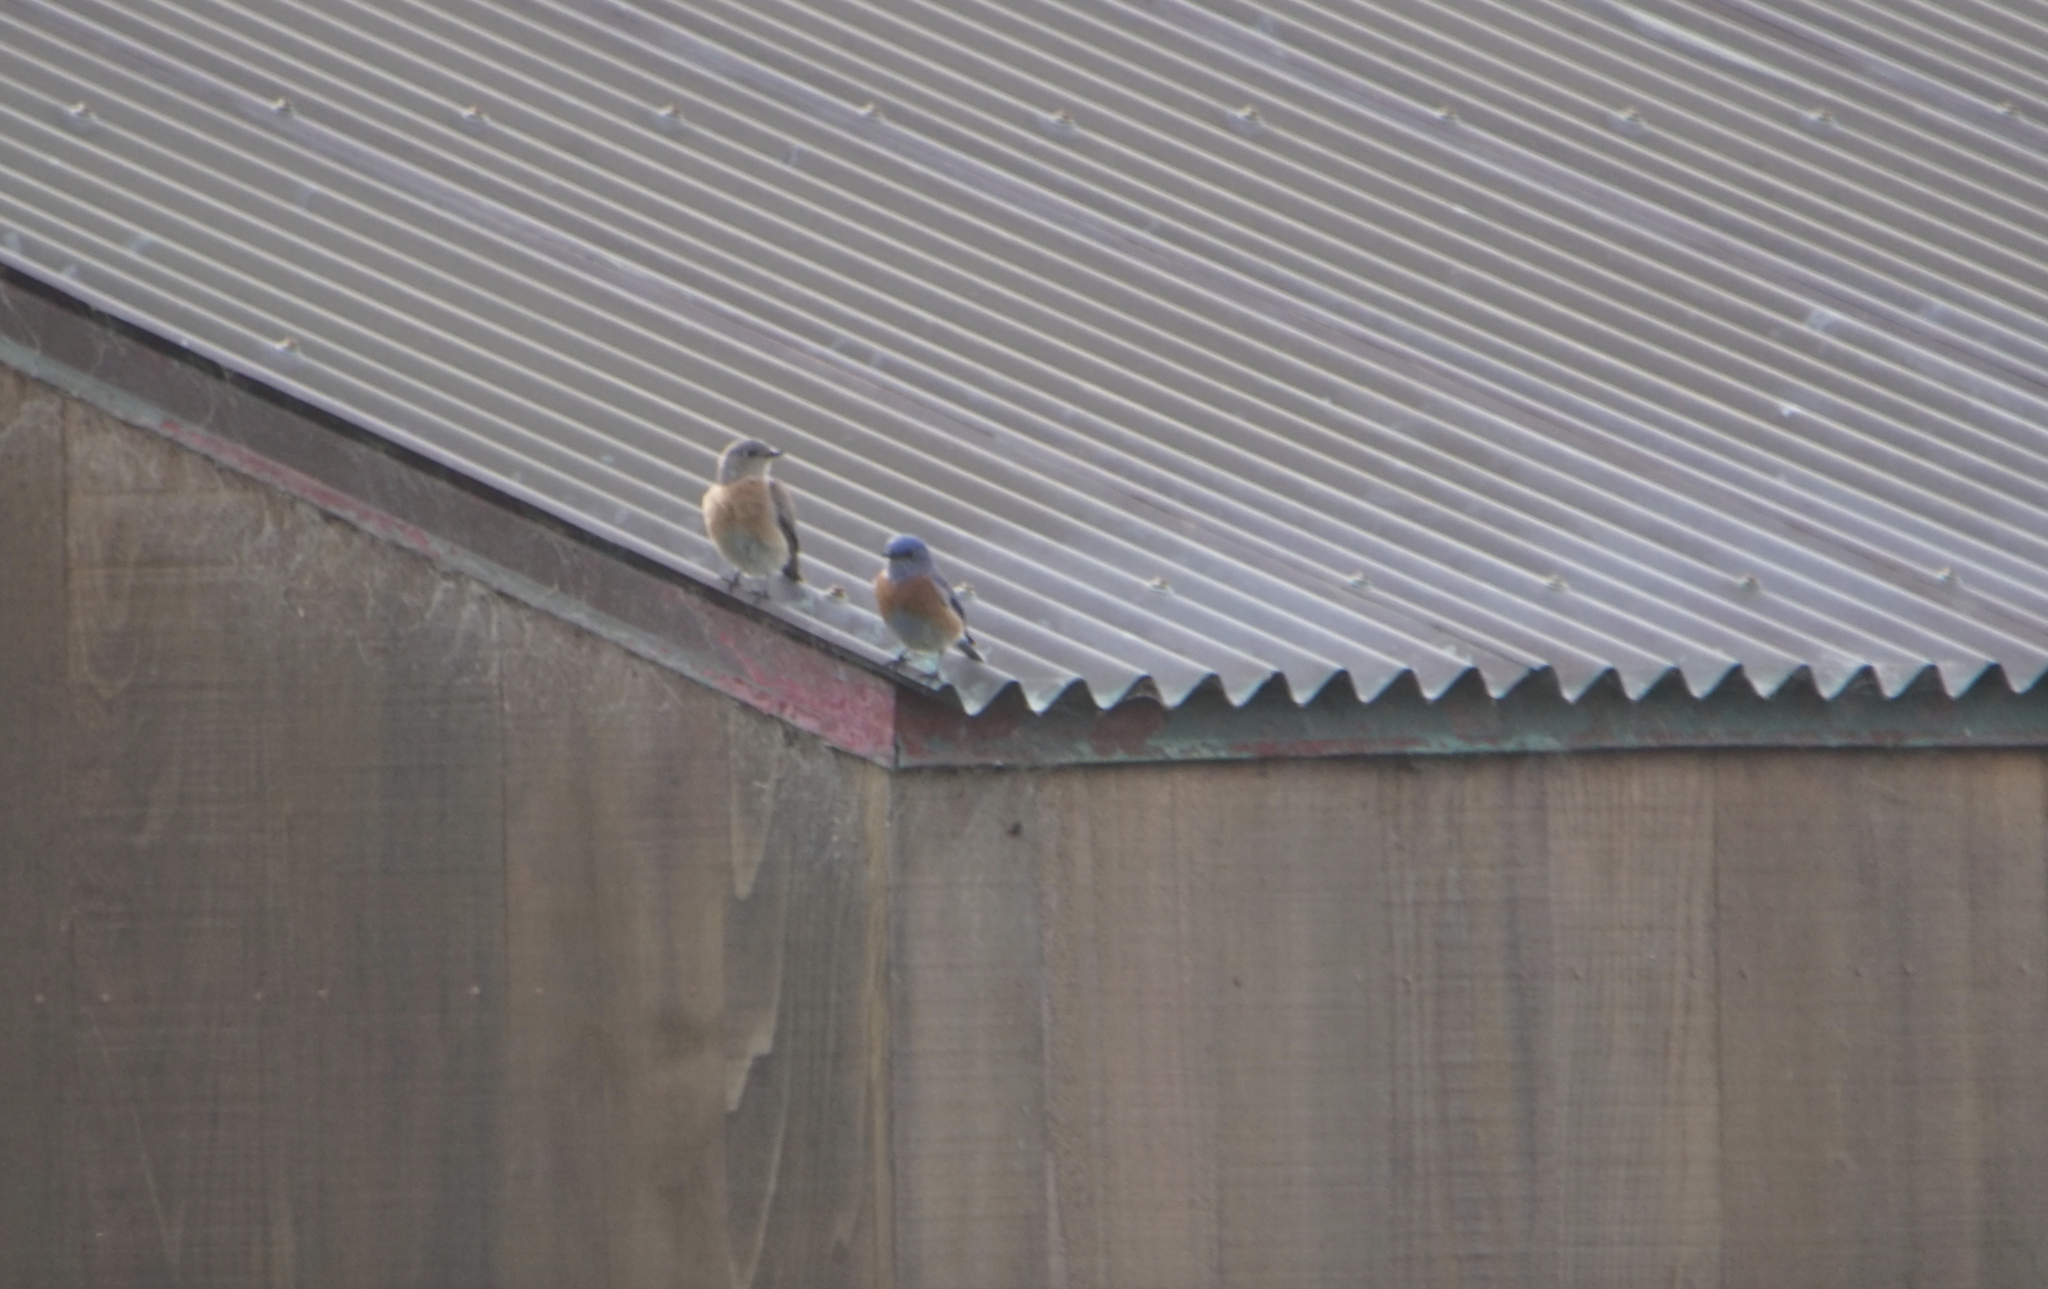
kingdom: Animalia
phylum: Chordata
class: Aves
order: Passeriformes
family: Turdidae
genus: Sialia
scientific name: Sialia mexicana
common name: Western bluebird
